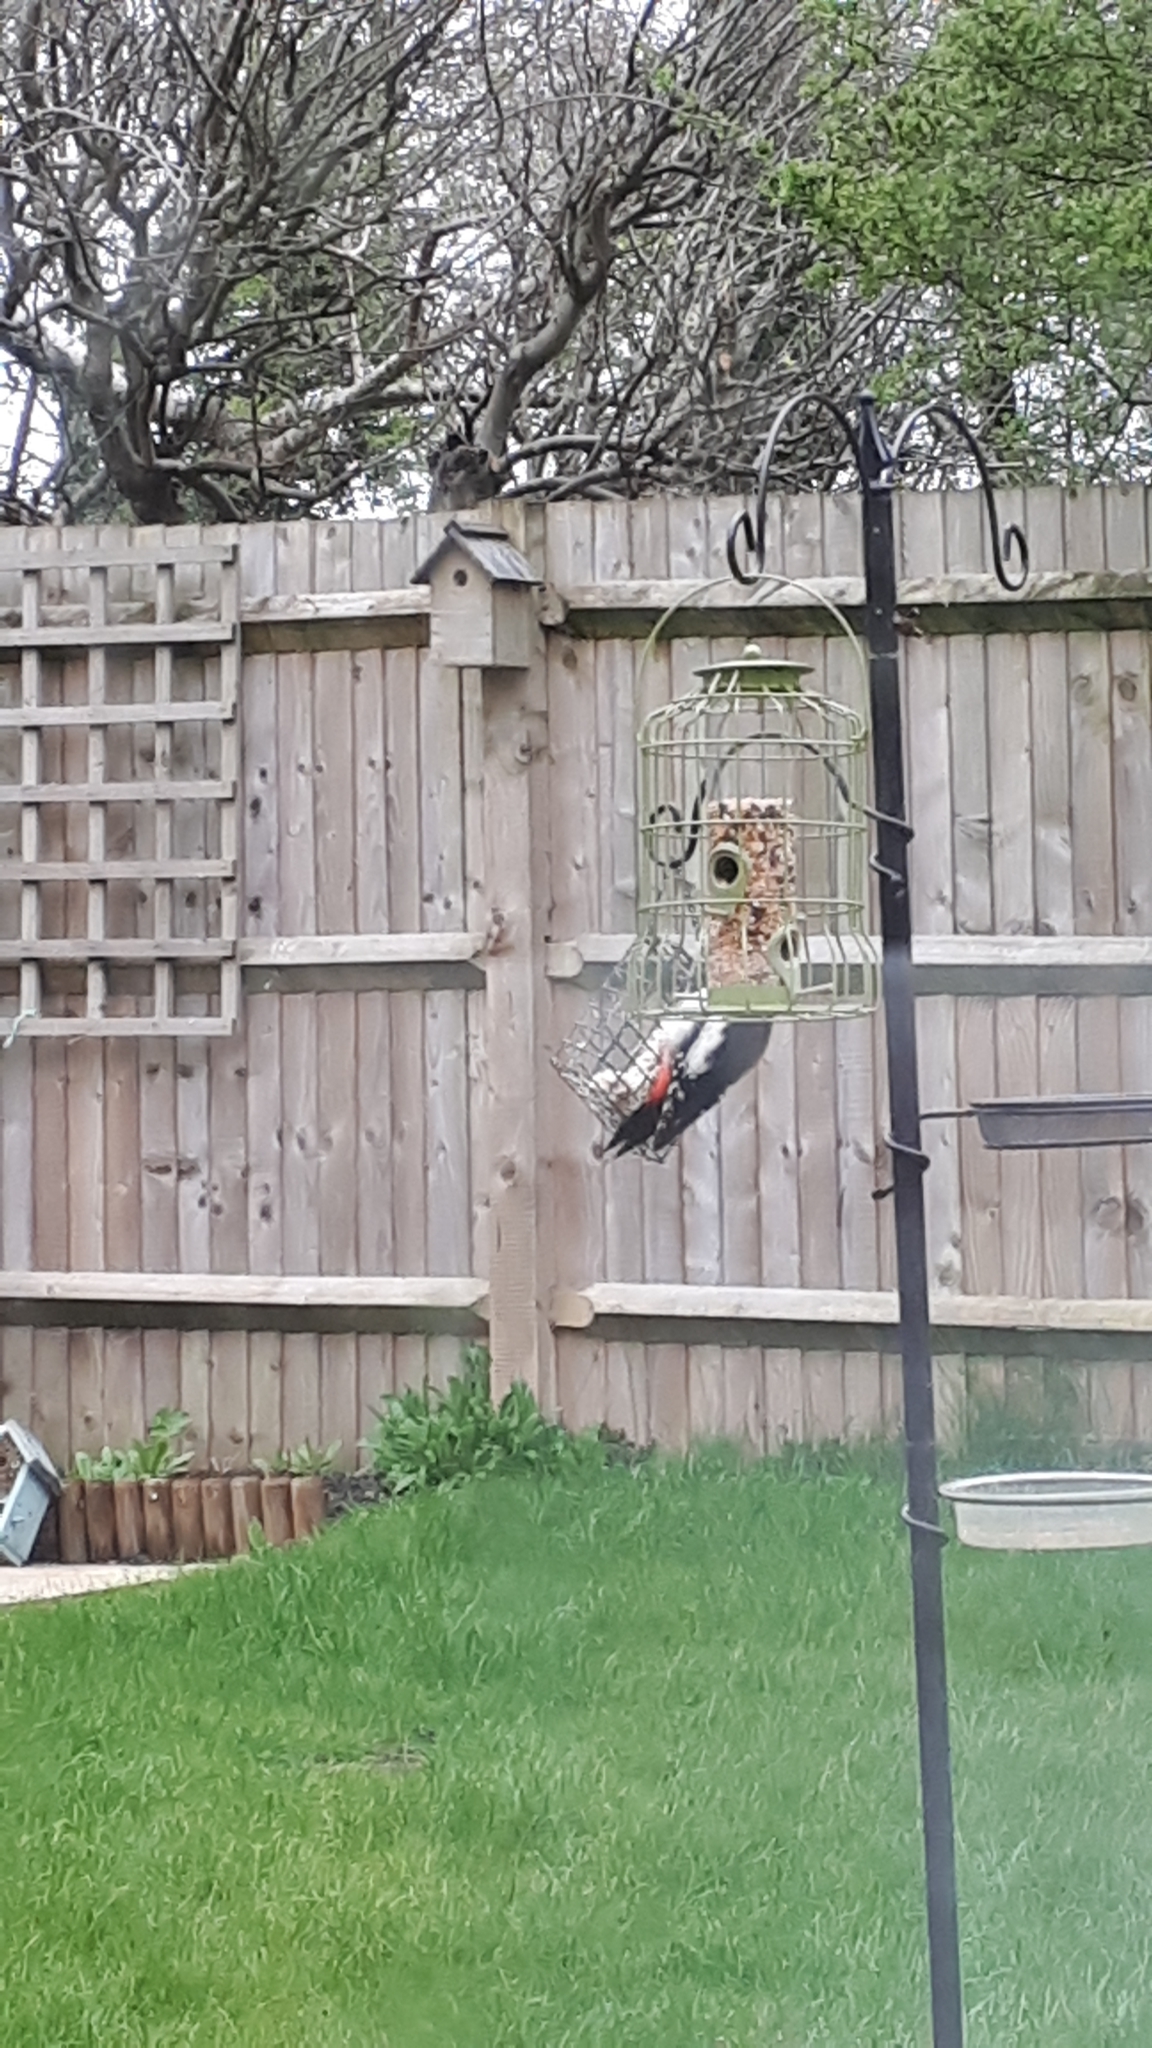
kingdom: Animalia
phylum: Chordata
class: Aves
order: Piciformes
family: Picidae
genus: Dendrocopos
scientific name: Dendrocopos major
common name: Great spotted woodpecker
